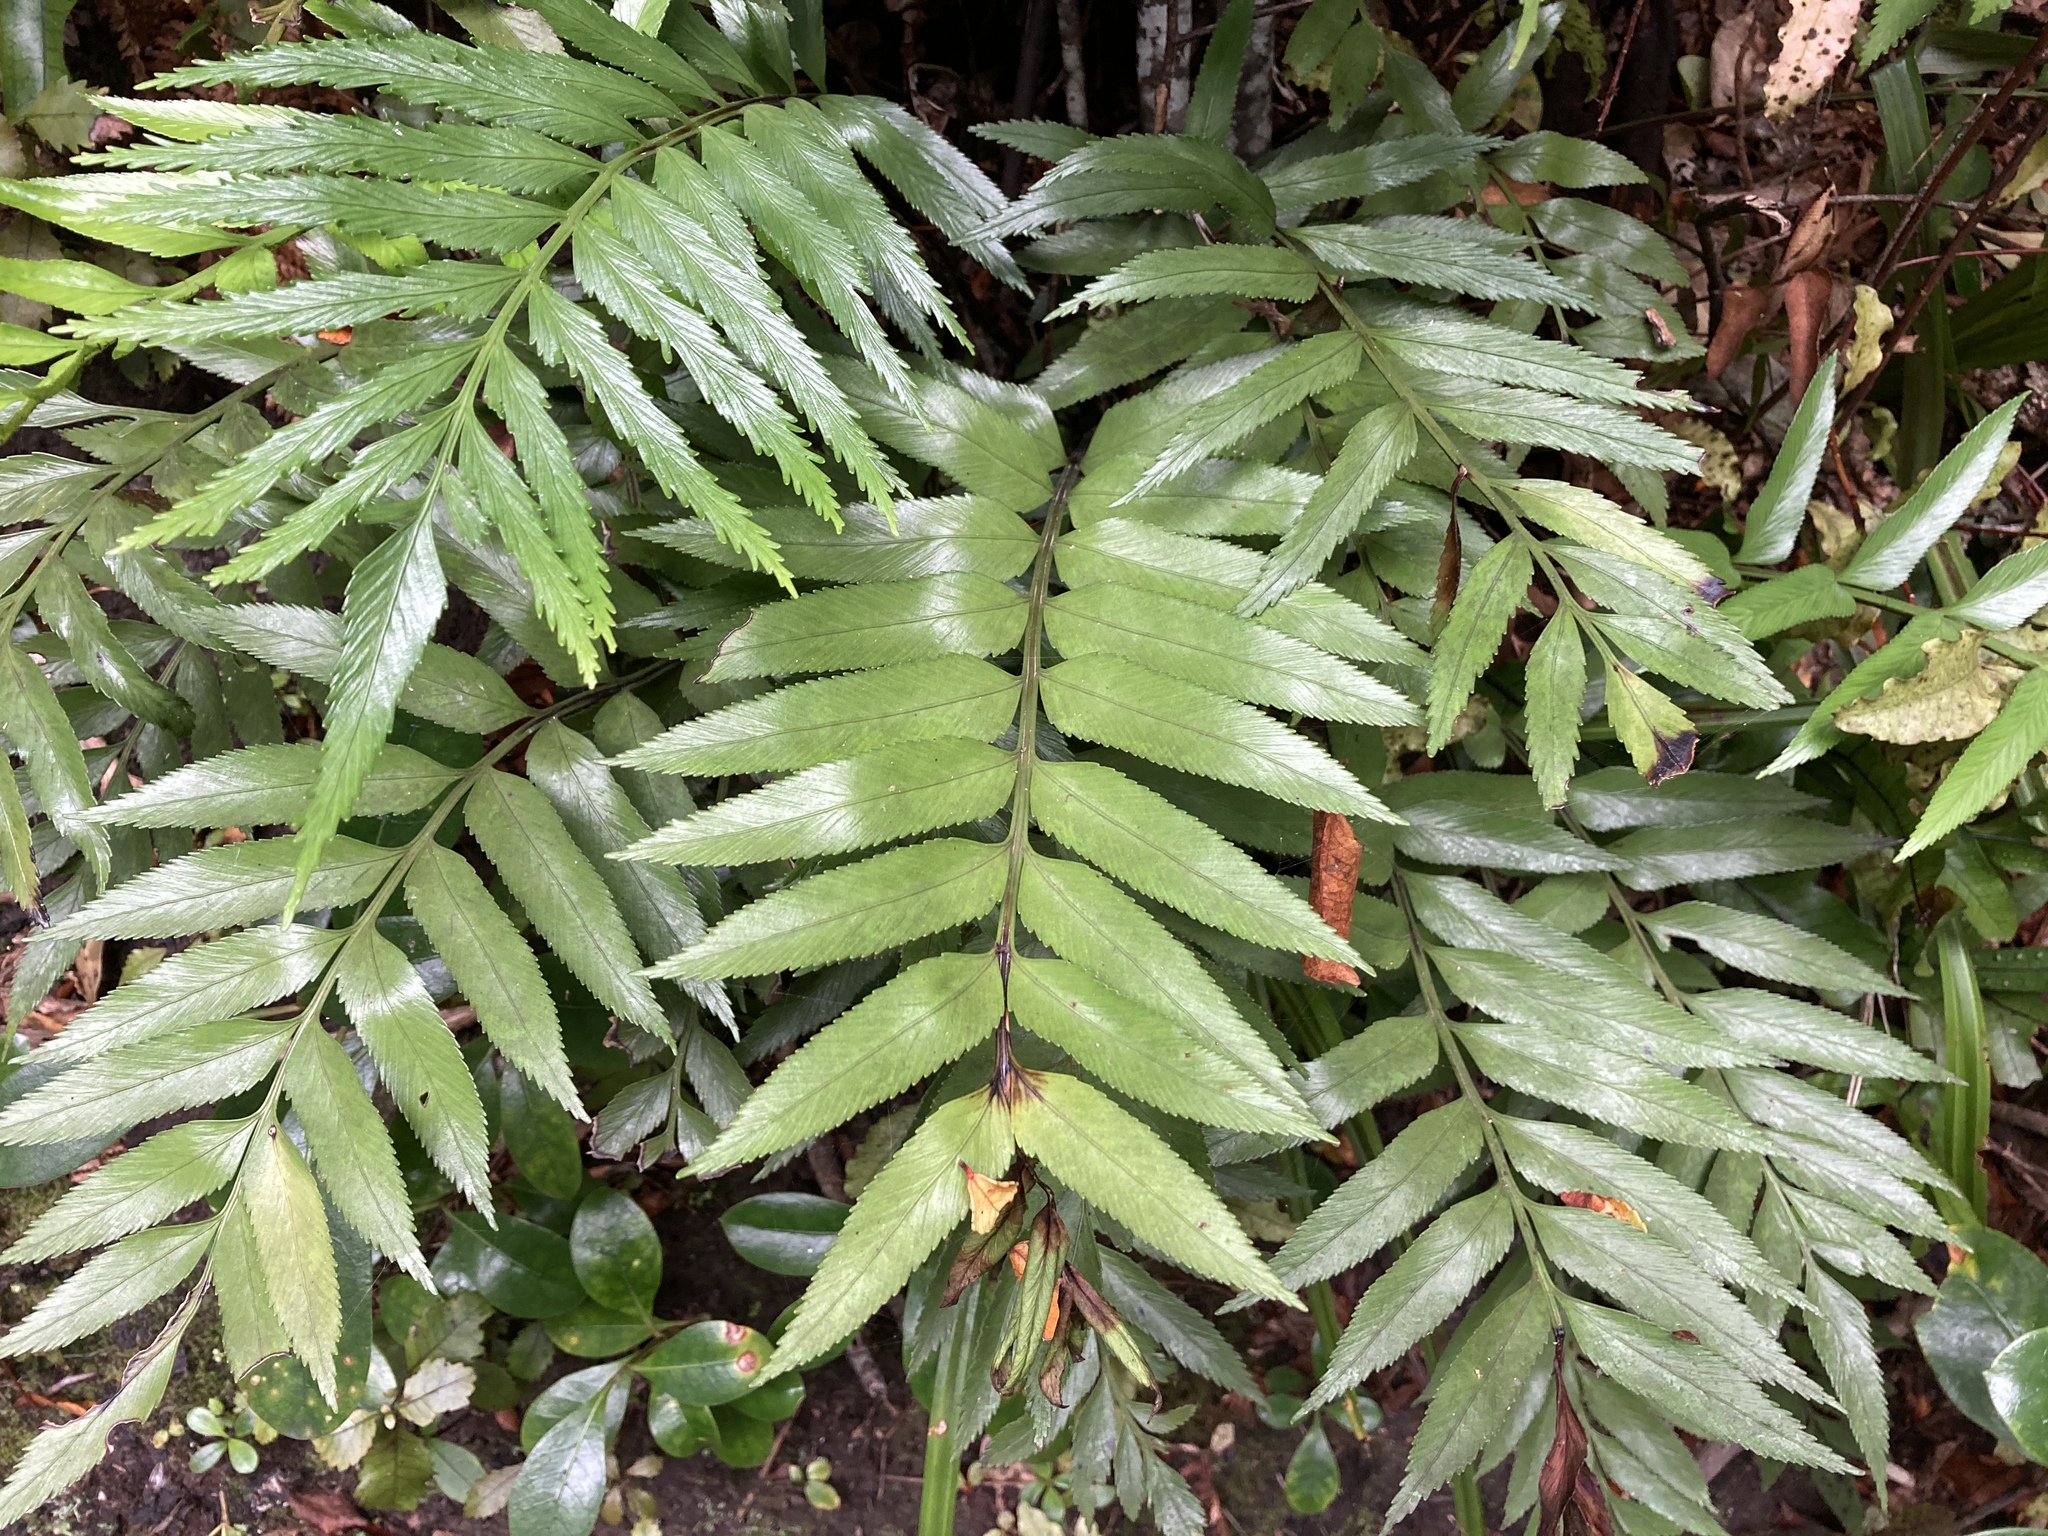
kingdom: Plantae
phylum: Tracheophyta
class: Polypodiopsida
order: Polypodiales
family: Aspleniaceae
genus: Asplenium
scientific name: Asplenium obtusatum
